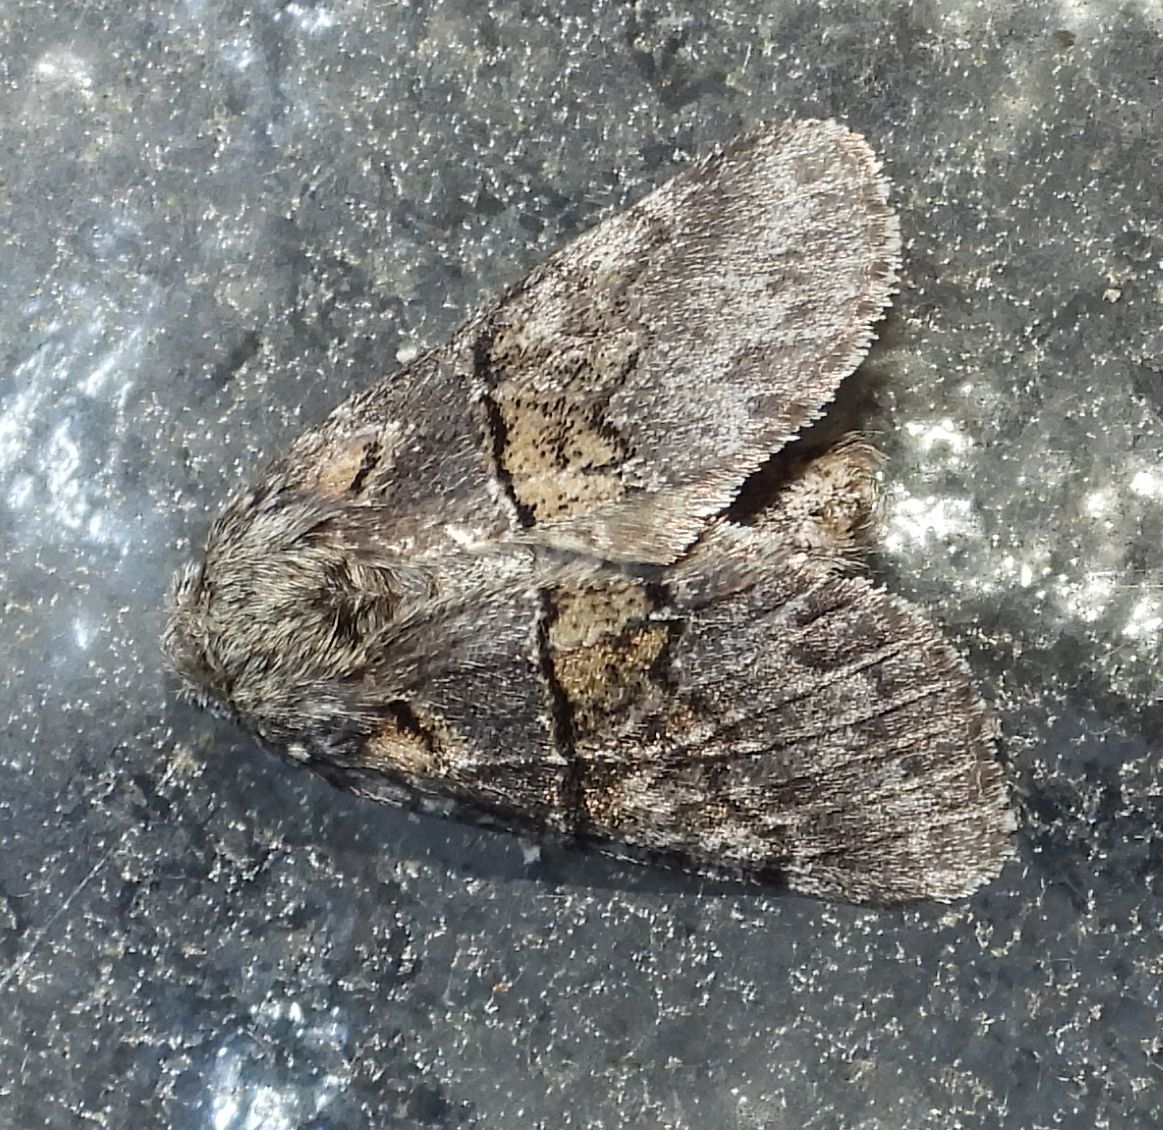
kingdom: Animalia
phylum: Arthropoda
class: Insecta
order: Lepidoptera
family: Notodontidae
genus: Gluphisia
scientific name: Gluphisia septentrionis
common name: Common gluphisia
